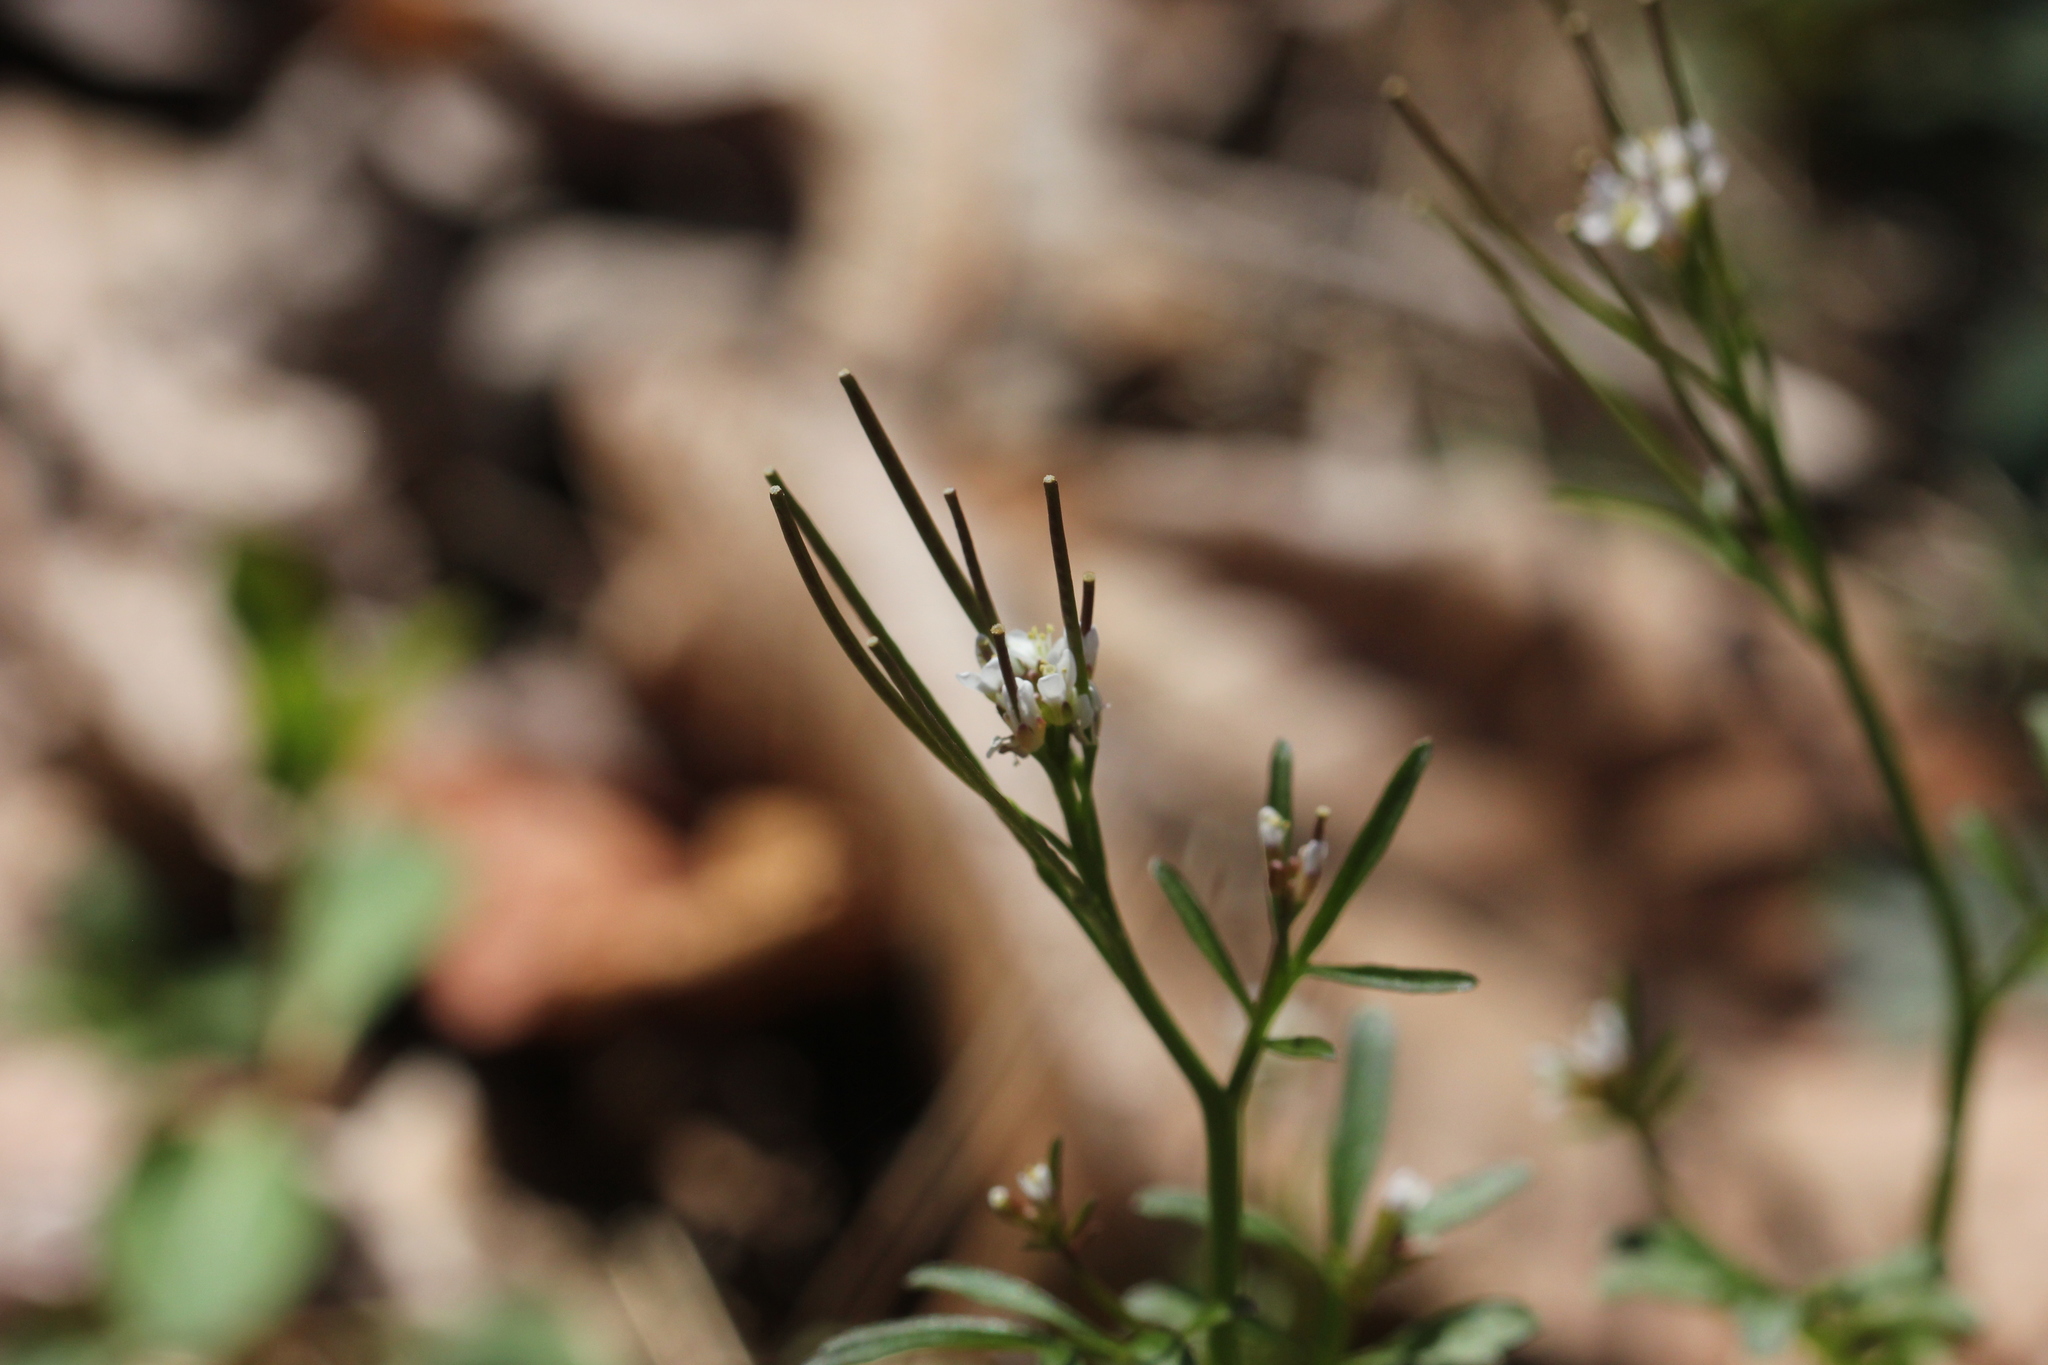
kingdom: Plantae
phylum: Tracheophyta
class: Magnoliopsida
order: Brassicales
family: Brassicaceae
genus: Cardamine
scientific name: Cardamine hirsuta
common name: Hairy bittercress
